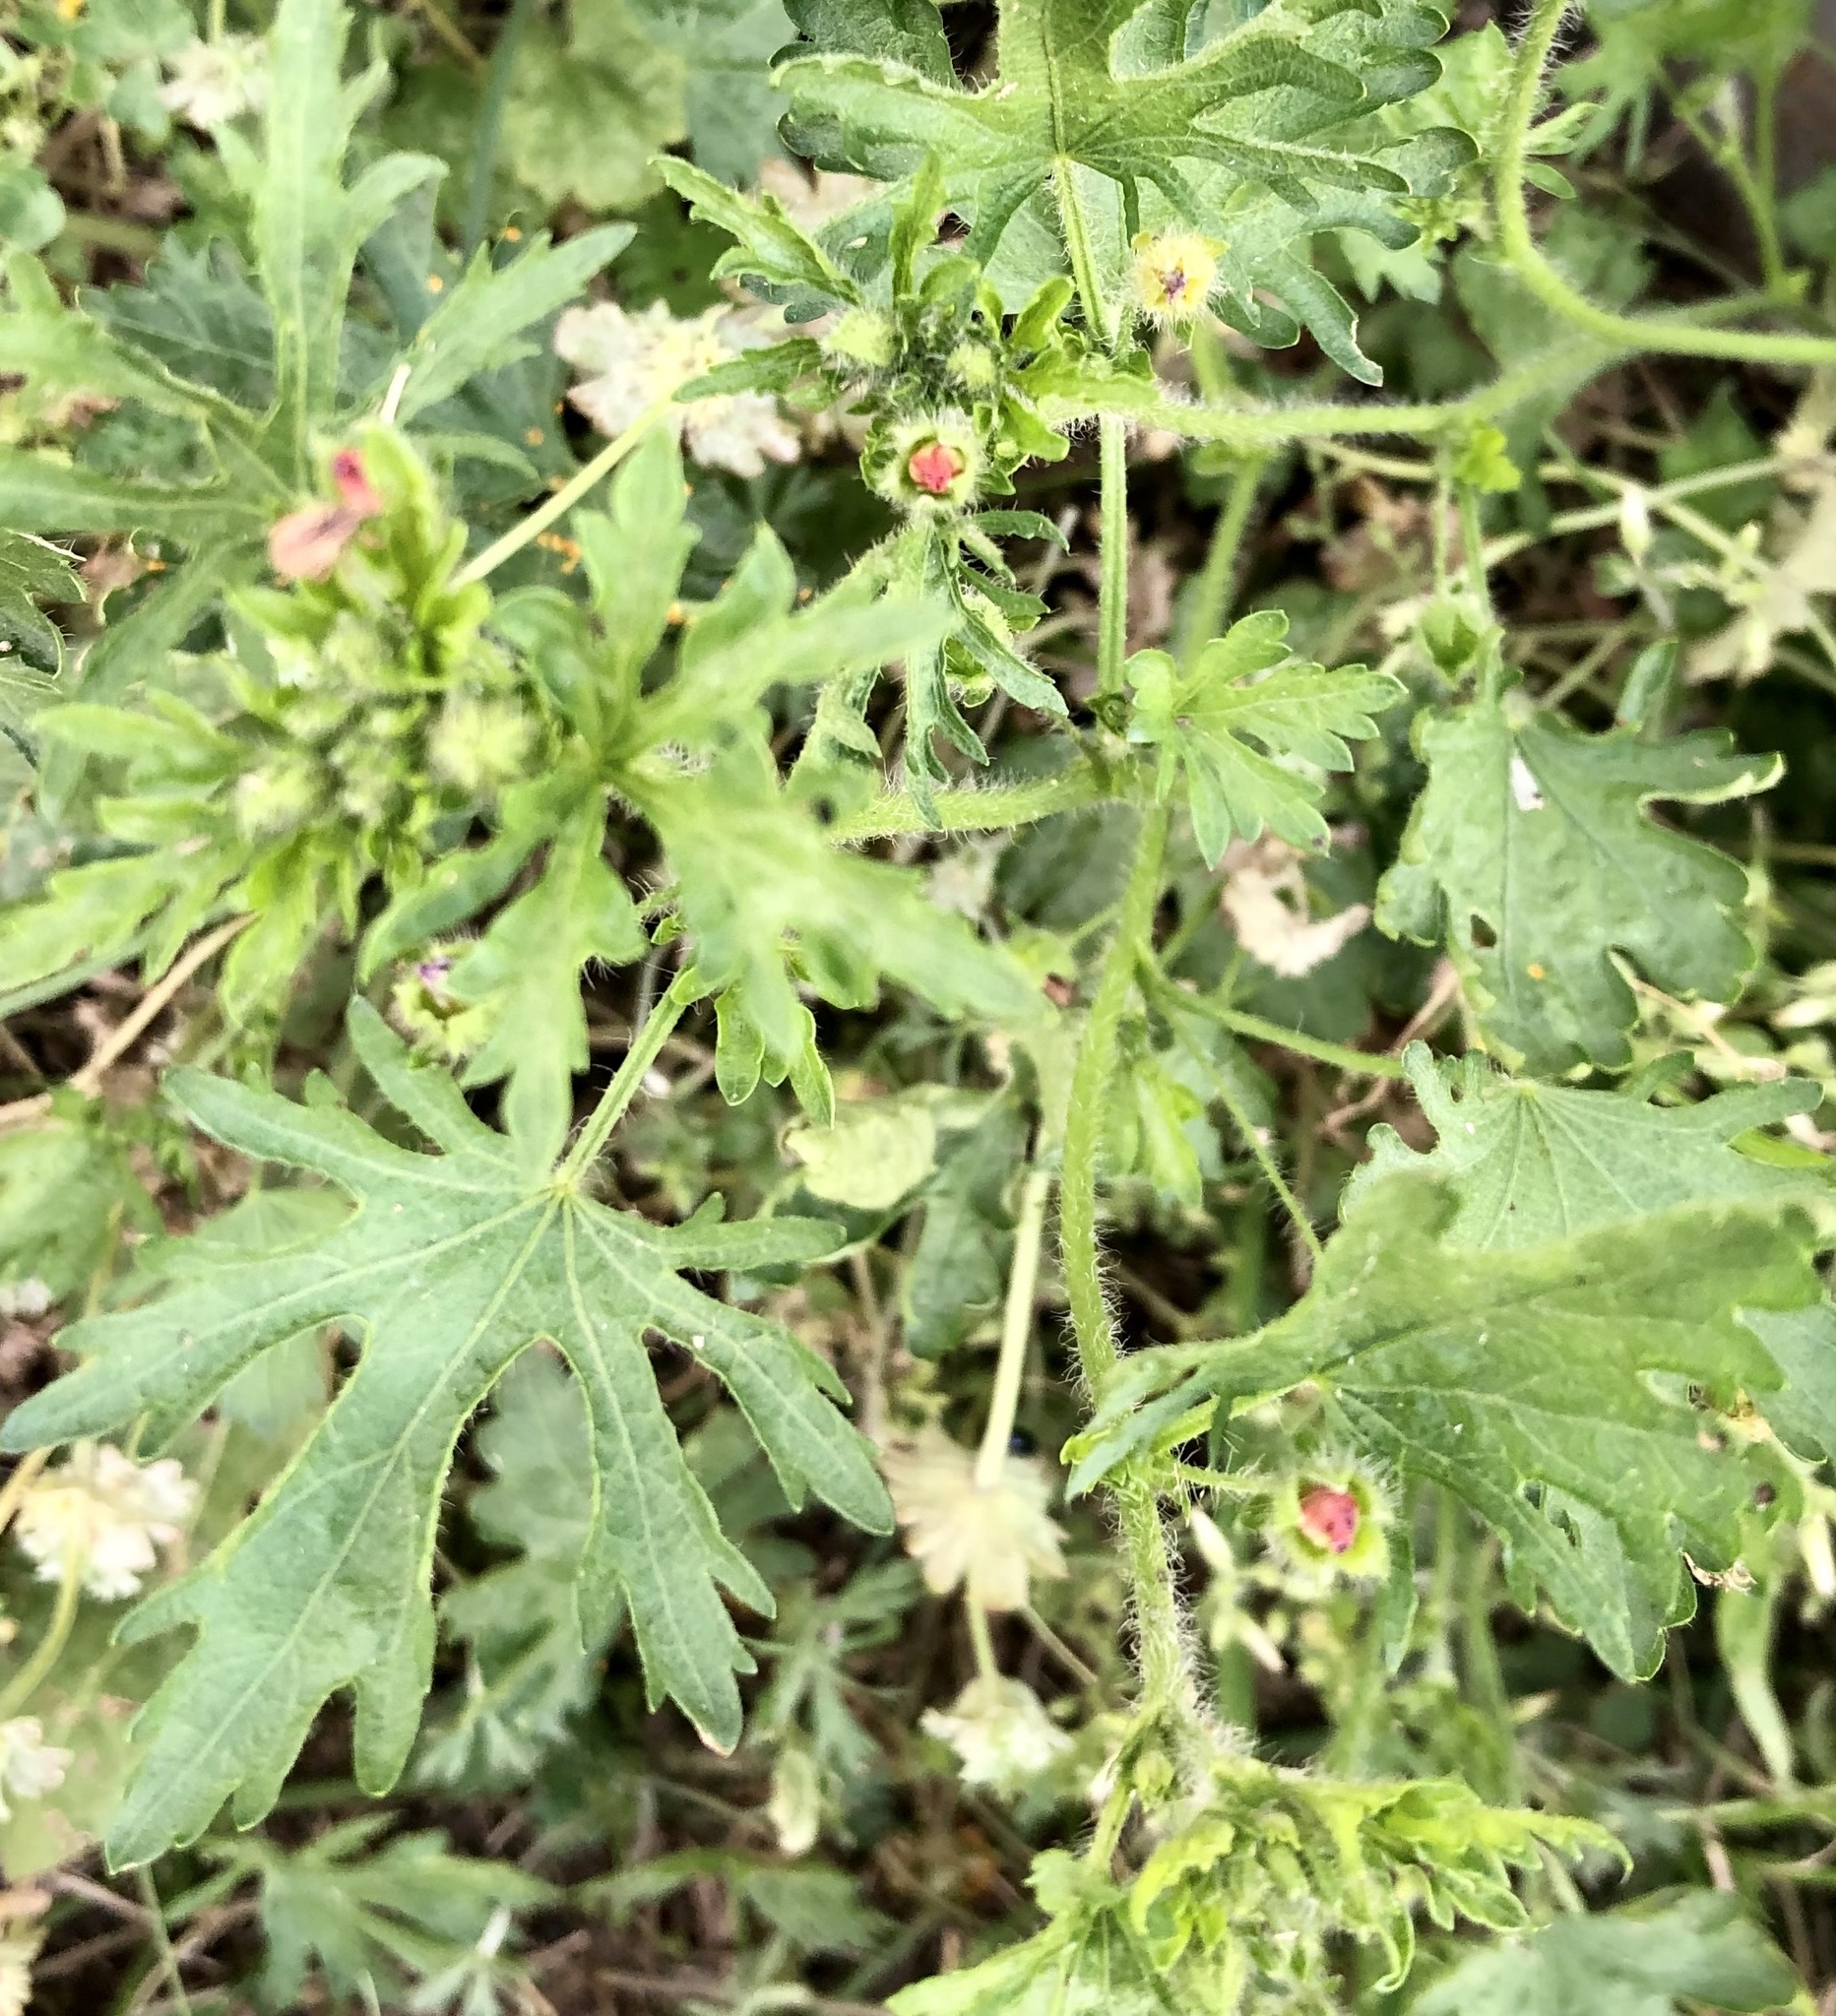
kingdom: Plantae
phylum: Tracheophyta
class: Magnoliopsida
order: Malvales
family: Malvaceae
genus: Modiola
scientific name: Modiola caroliniana
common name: Carolina bristlemallow
